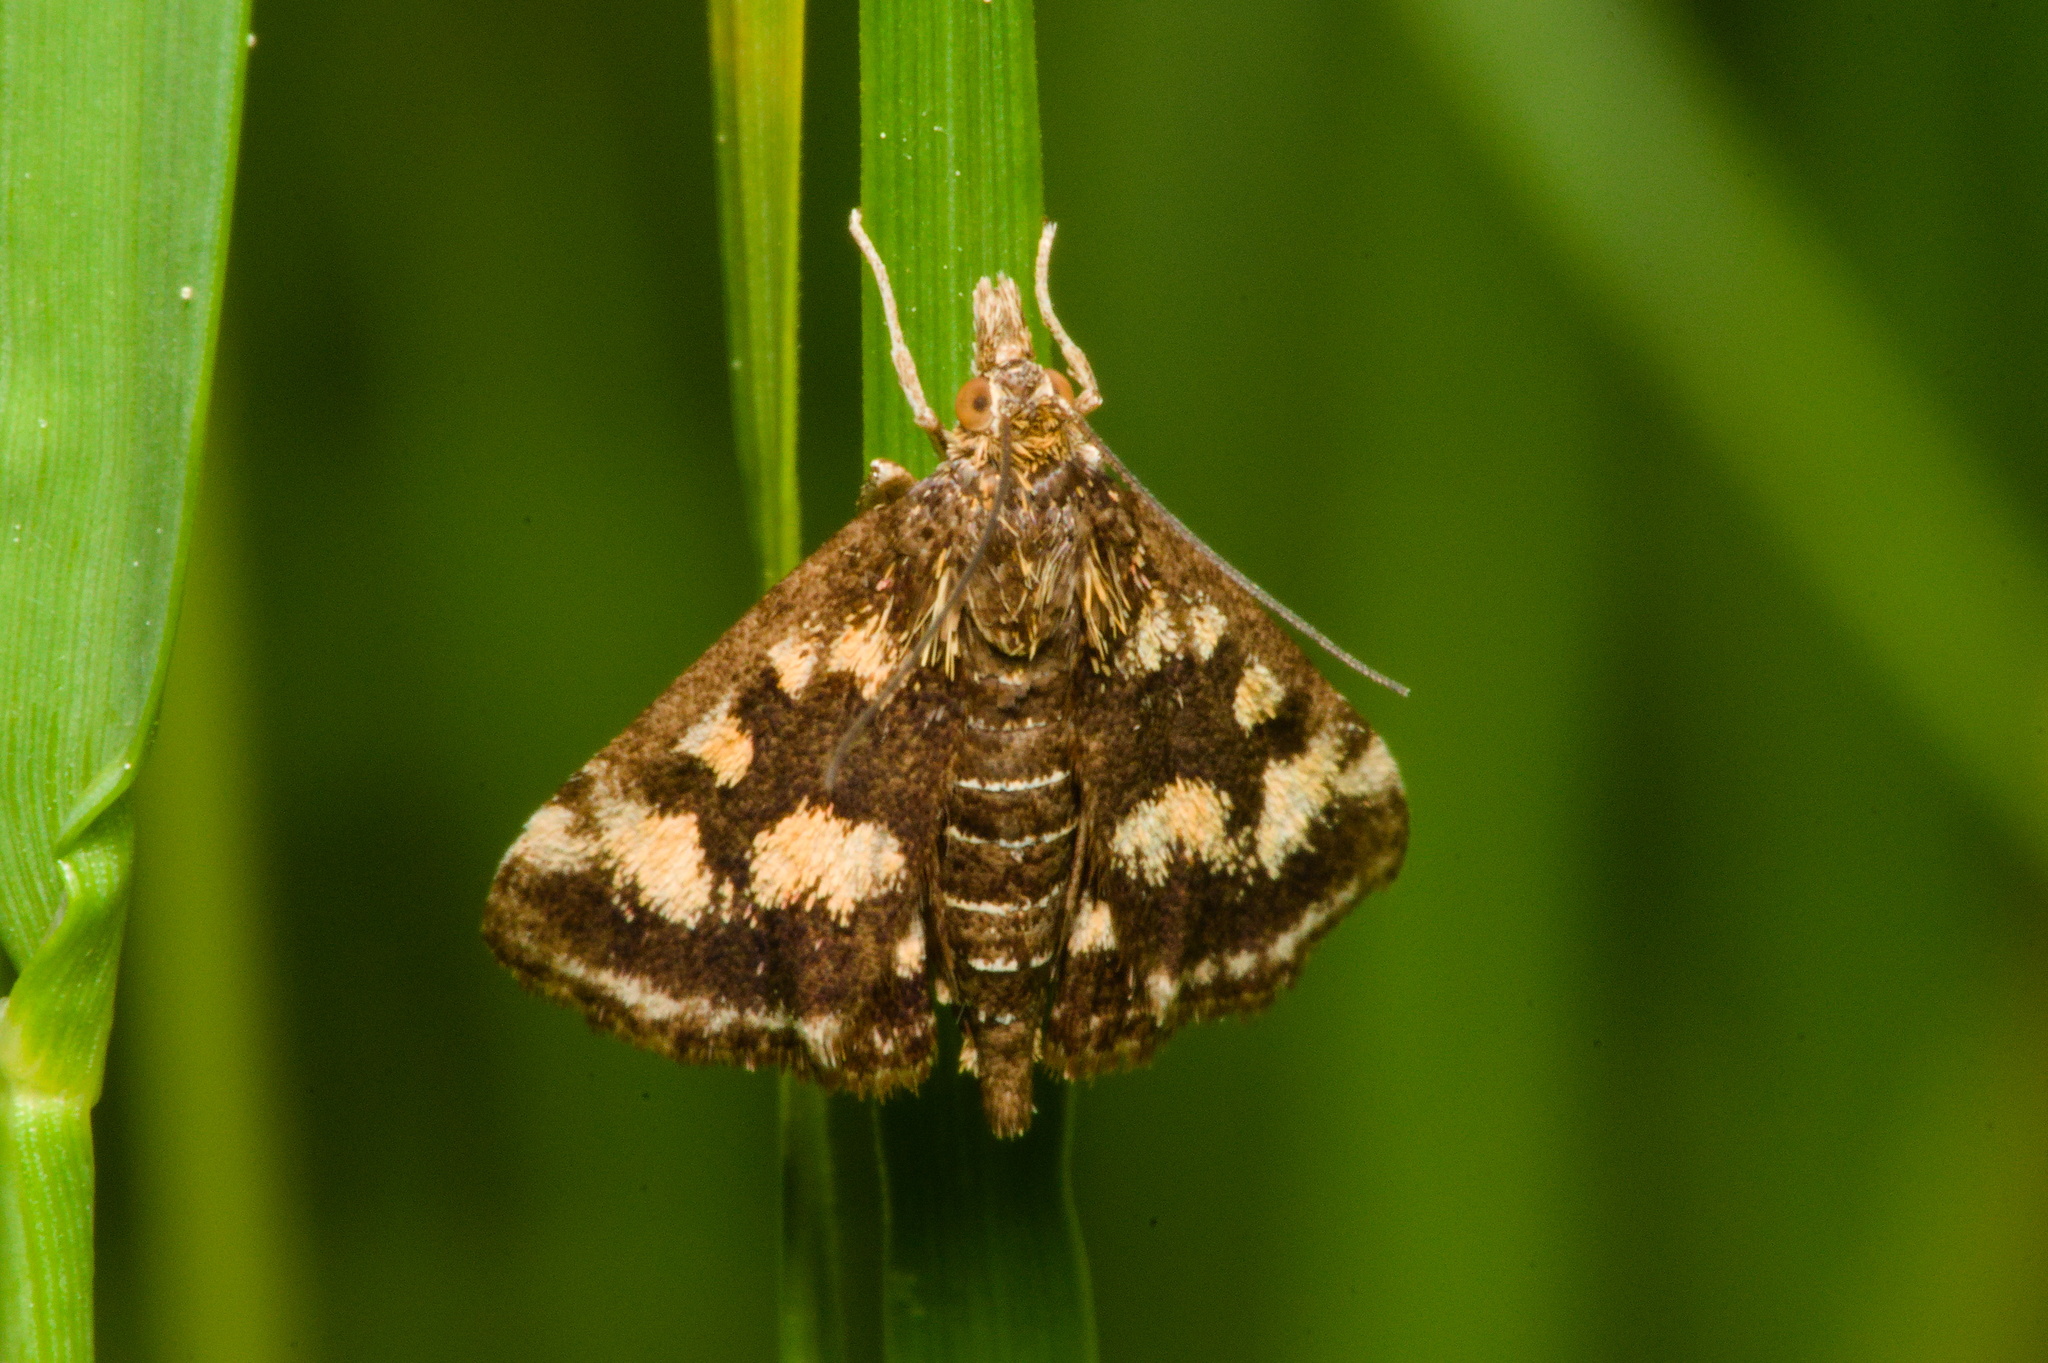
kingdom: Animalia
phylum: Arthropoda
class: Insecta
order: Lepidoptera
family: Crambidae
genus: Pyrausta
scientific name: Pyrausta purpuralis
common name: Common purple & gold
